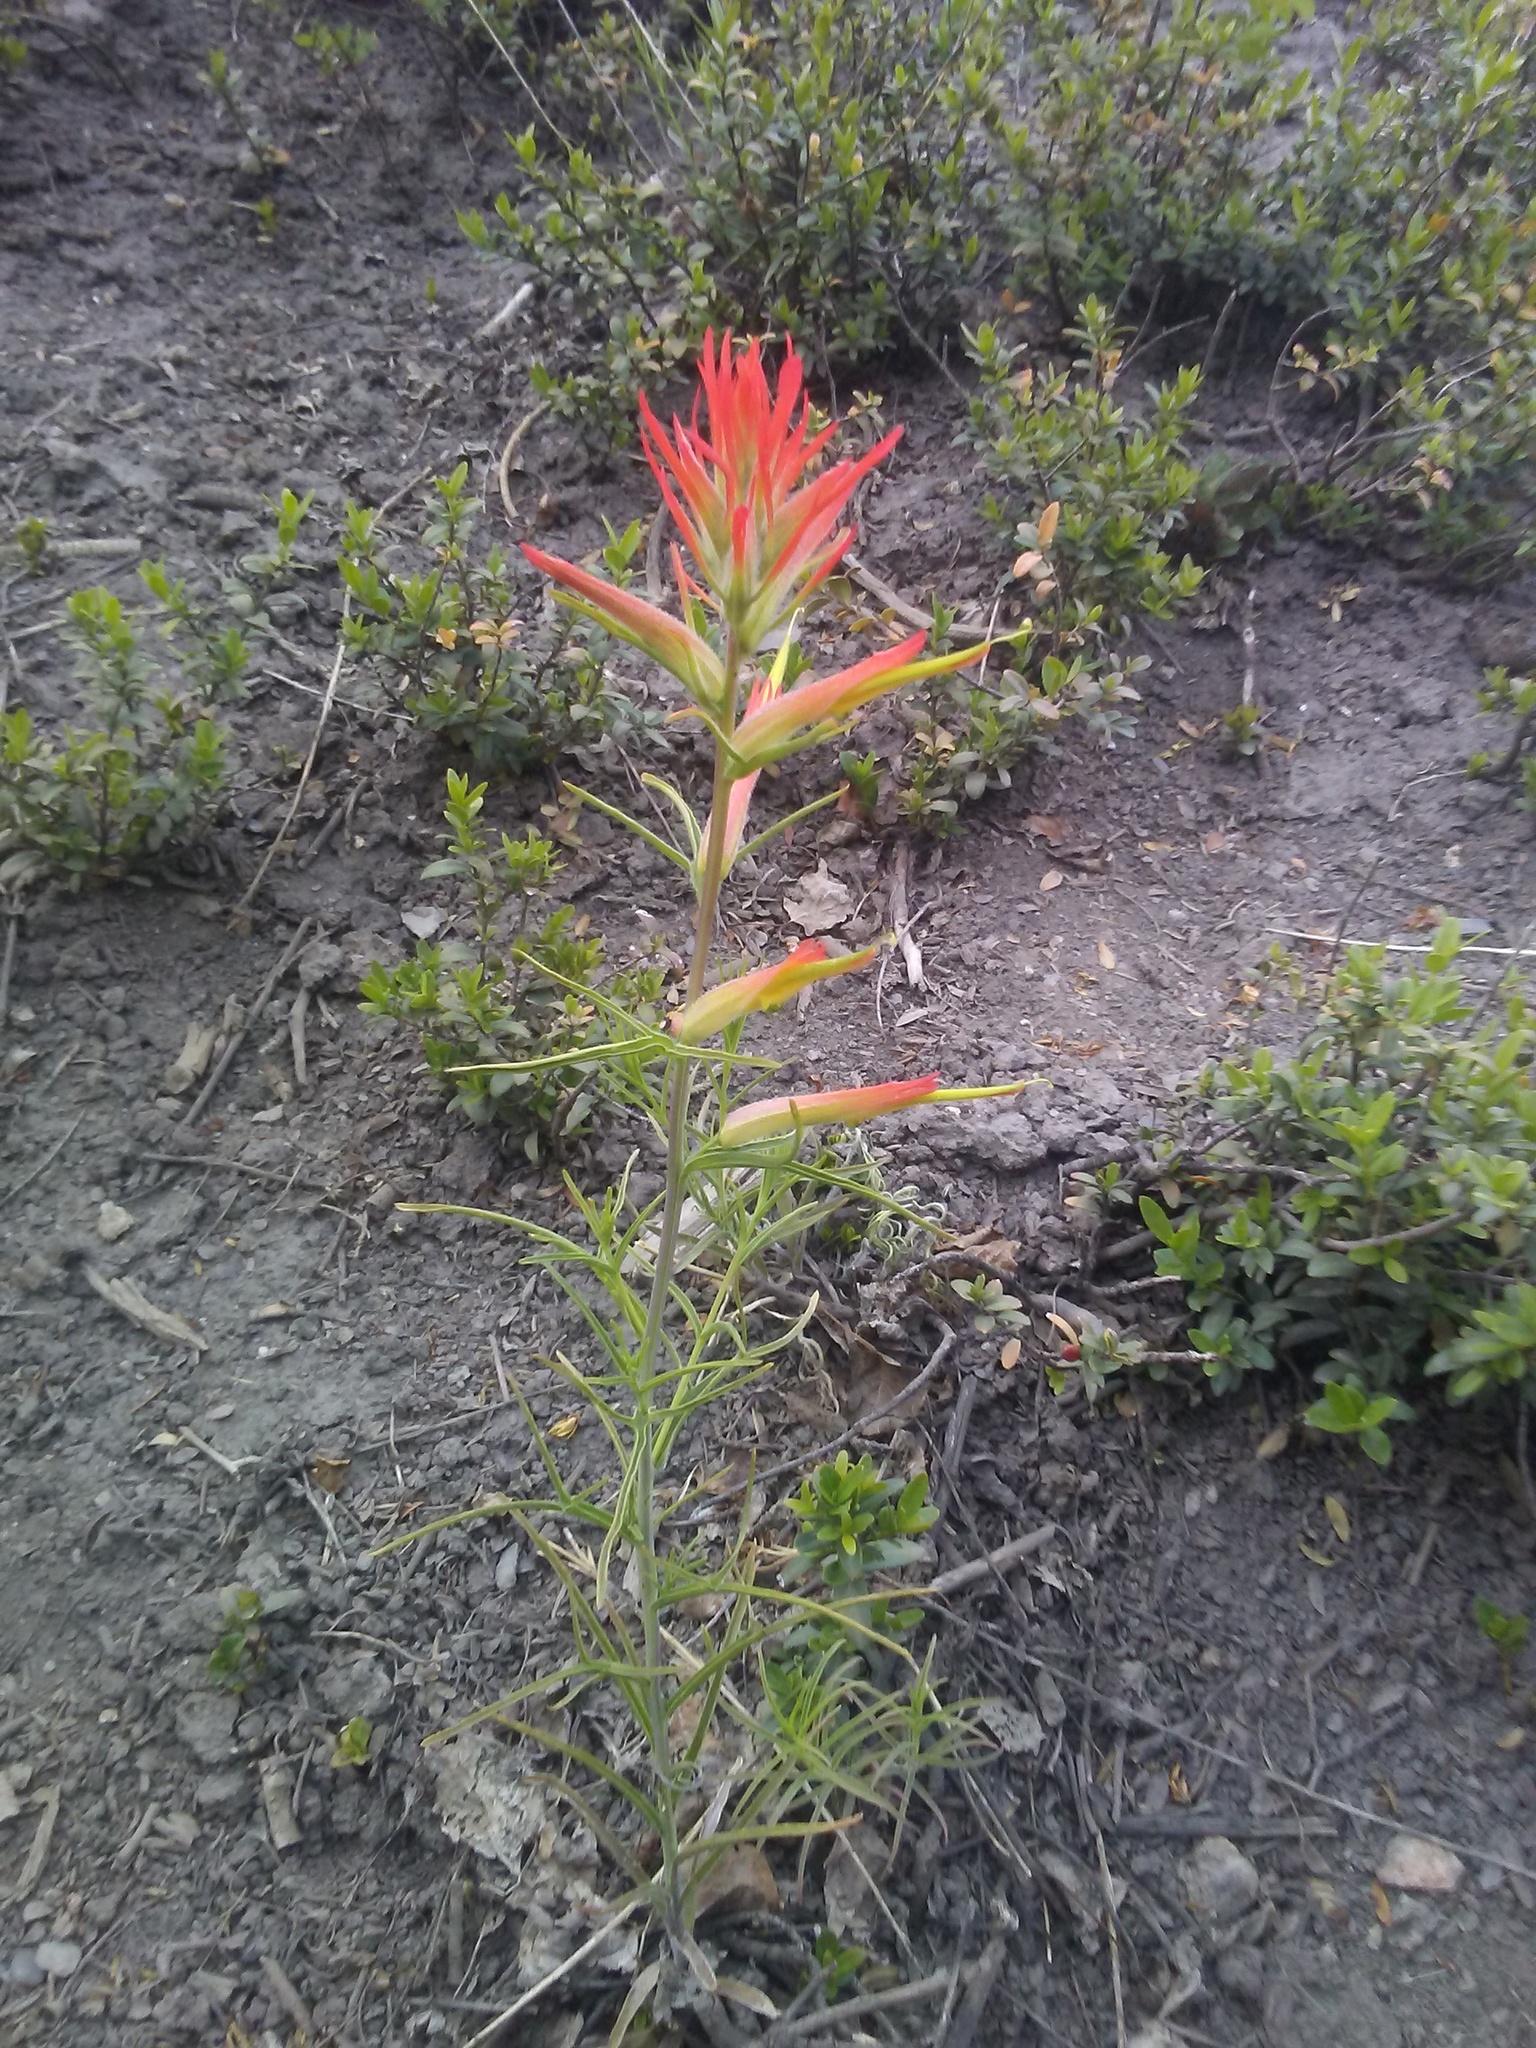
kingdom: Plantae
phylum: Tracheophyta
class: Magnoliopsida
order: Lamiales
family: Orobanchaceae
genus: Castilleja
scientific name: Castilleja linariifolia
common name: Wyoming paintbrush
